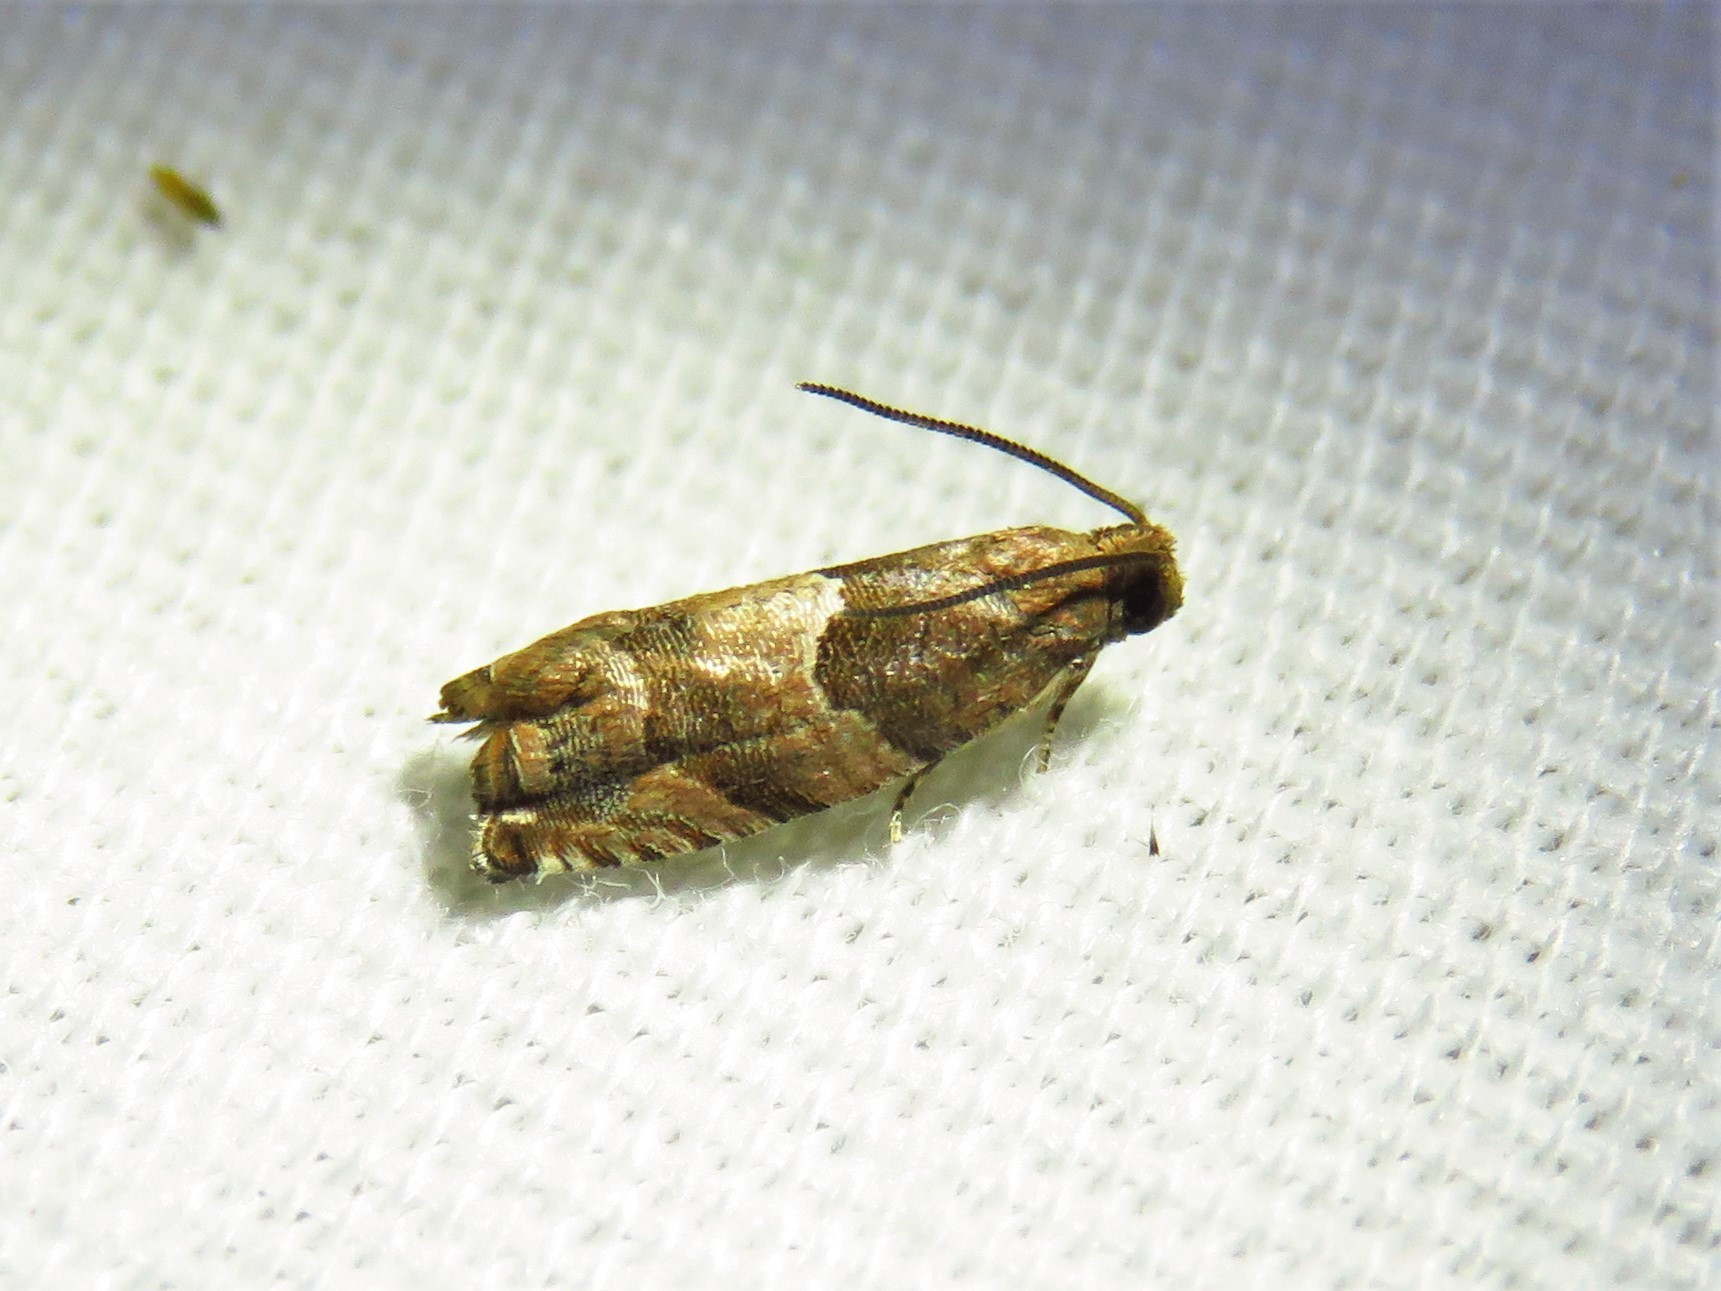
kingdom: Animalia
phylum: Arthropoda
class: Insecta
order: Lepidoptera
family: Tortricidae
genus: Gypsonoma
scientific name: Gypsonoma salicicolana
